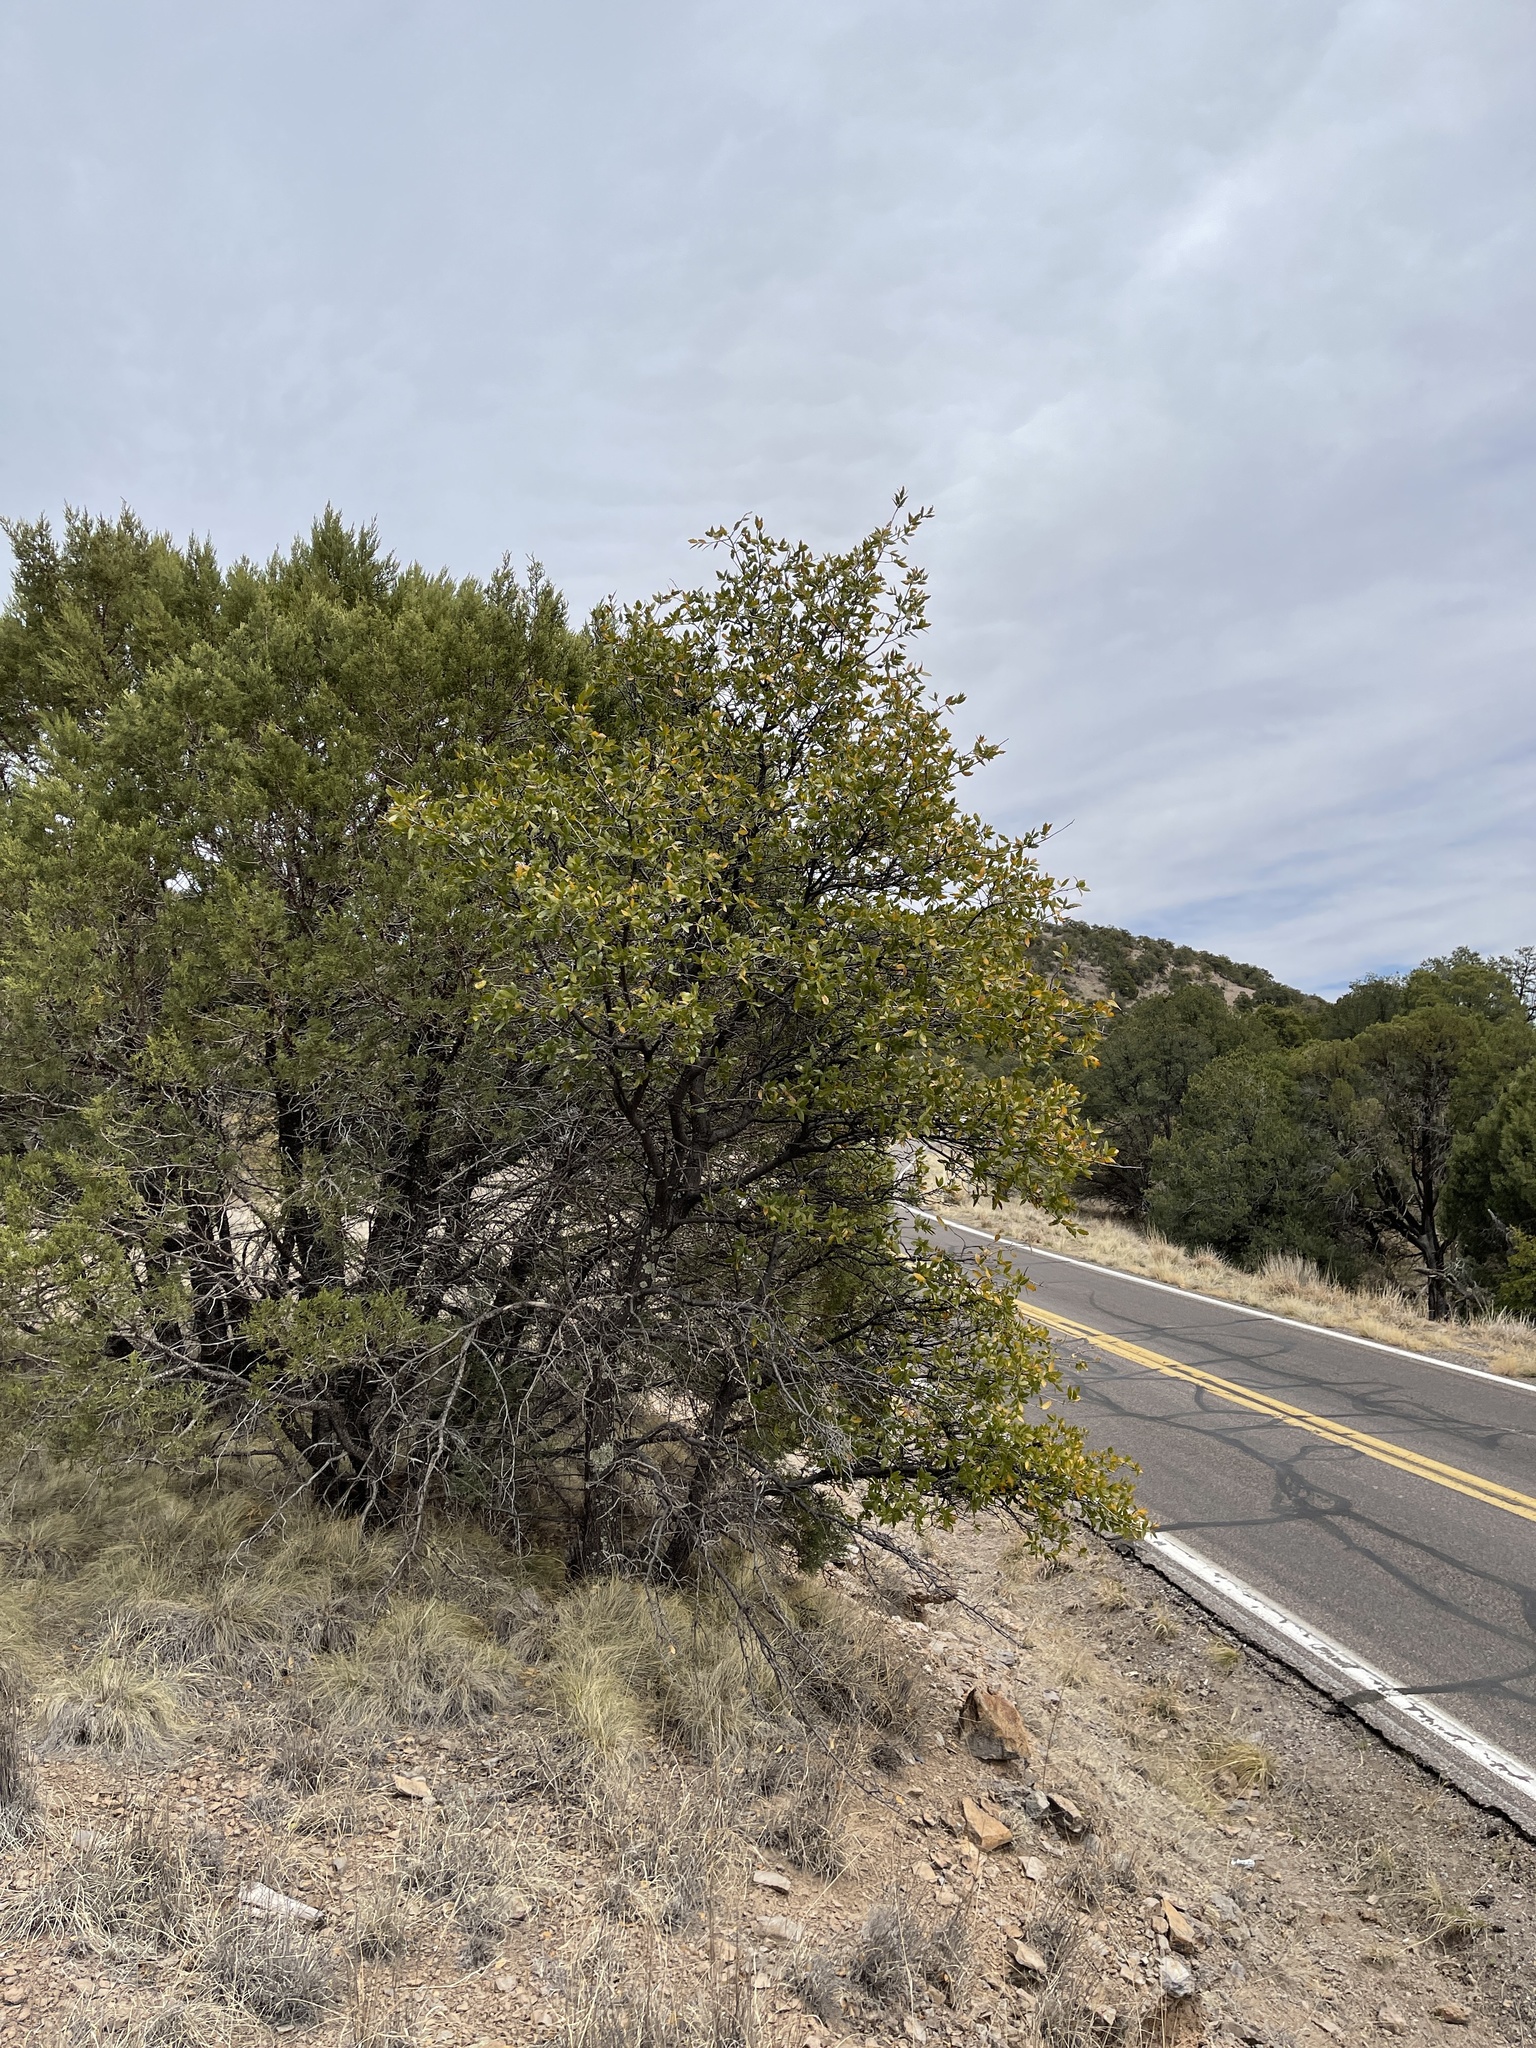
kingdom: Plantae
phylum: Tracheophyta
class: Magnoliopsida
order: Fagales
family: Fagaceae
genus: Quercus
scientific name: Quercus emoryi
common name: Emory oak
